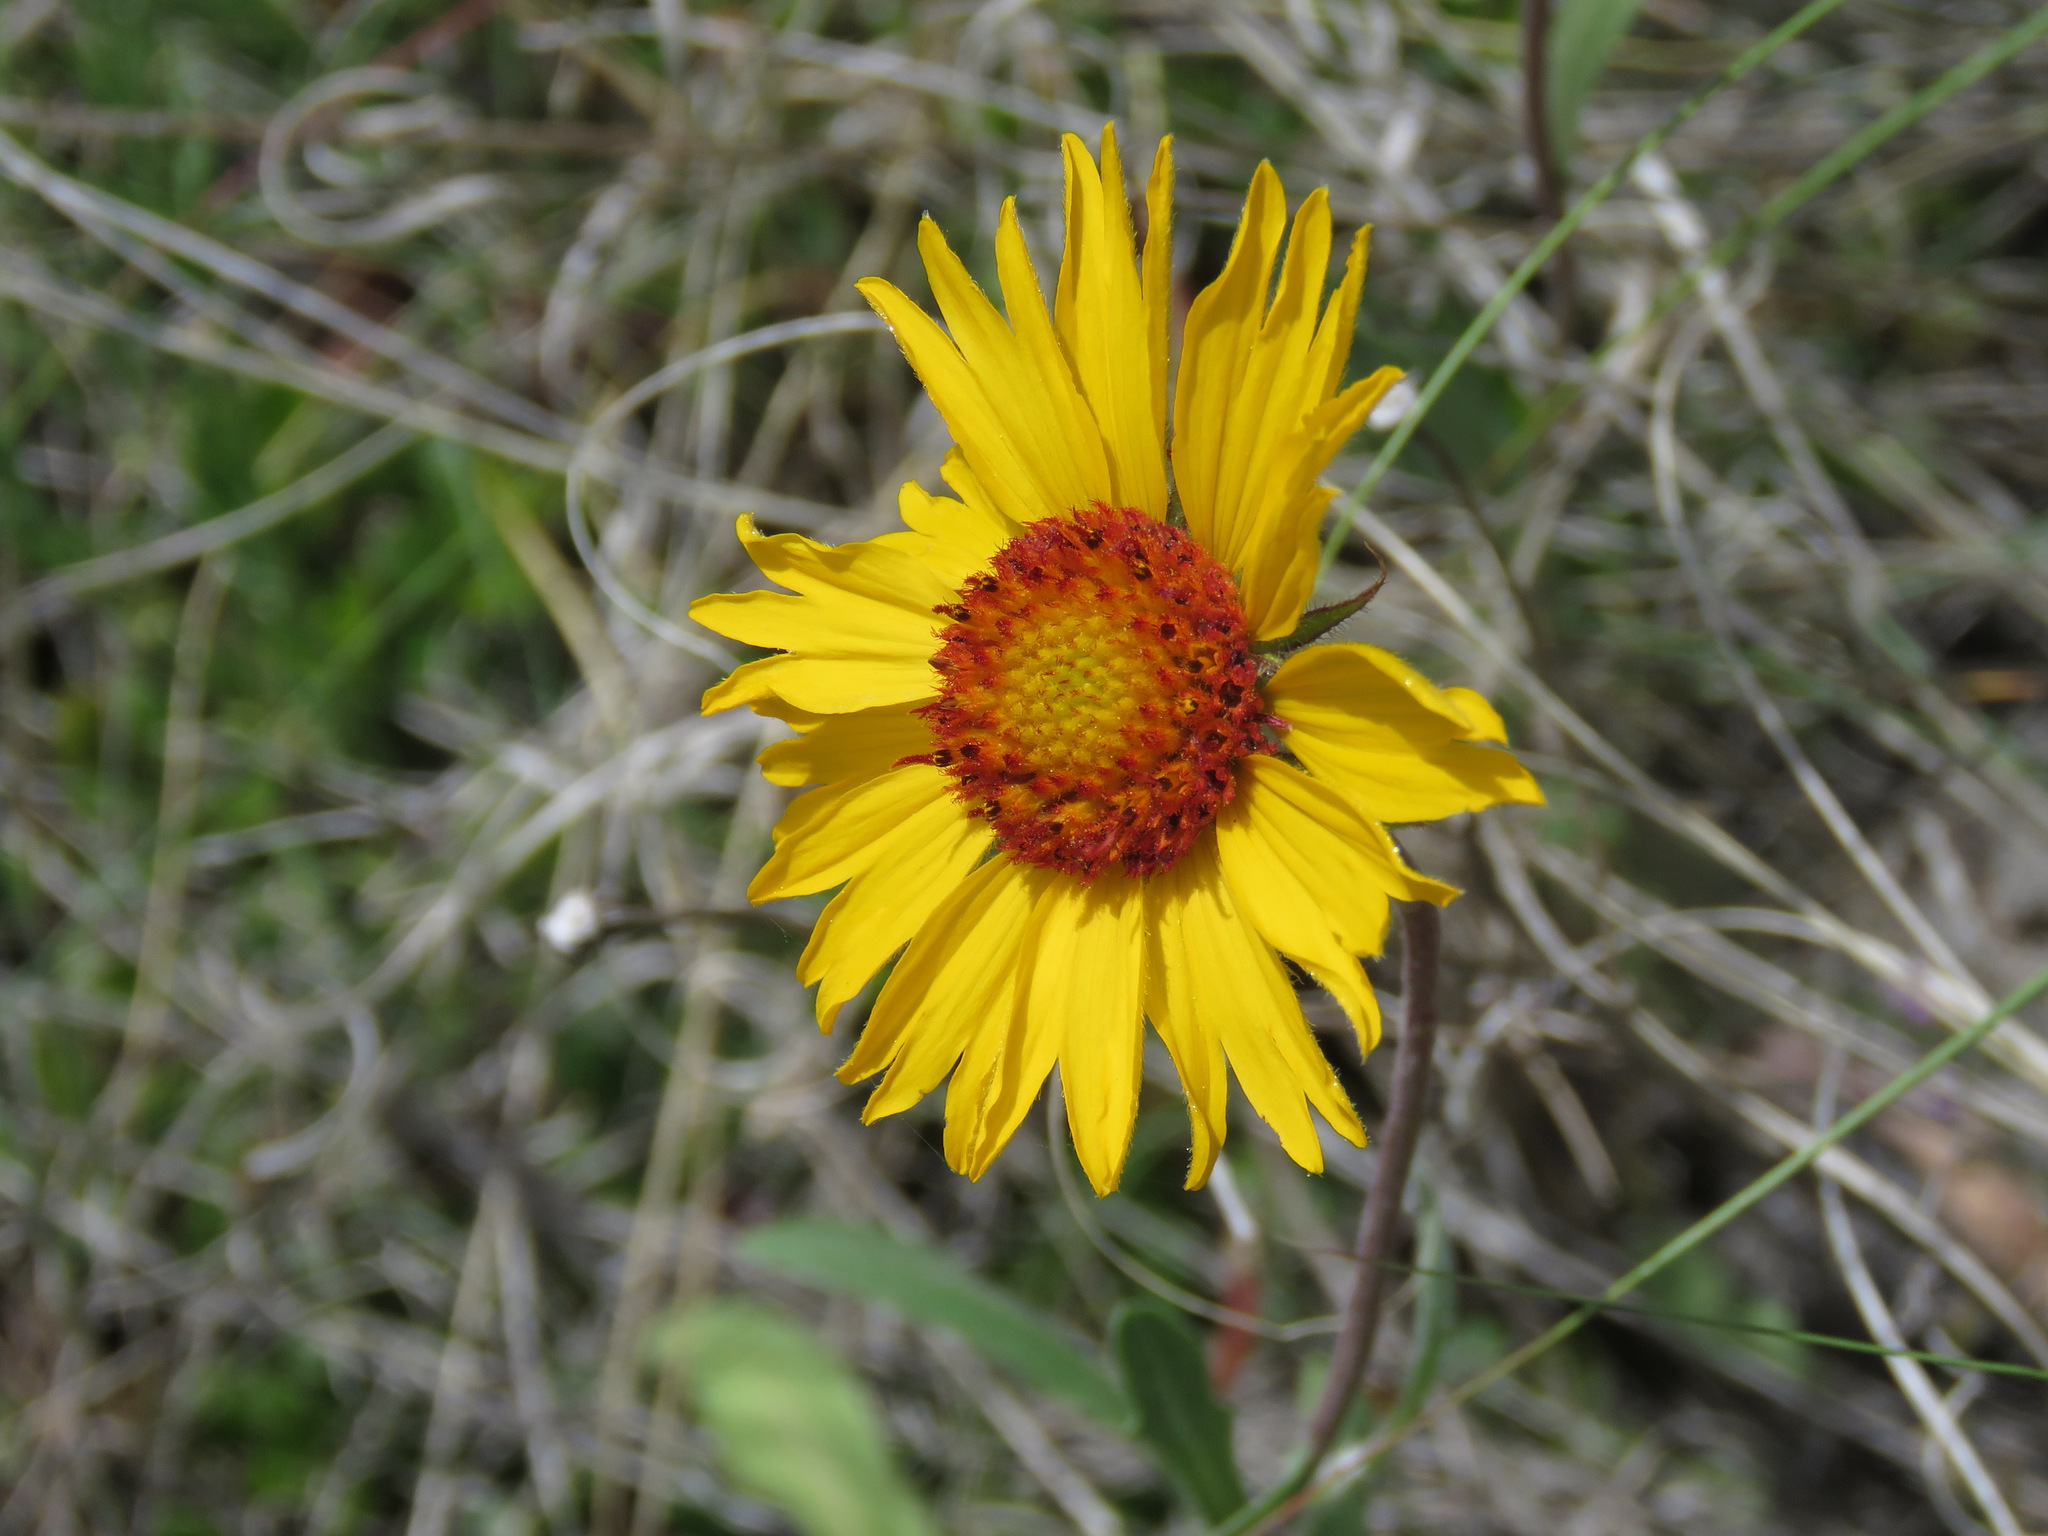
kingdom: Plantae
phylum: Tracheophyta
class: Magnoliopsida
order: Asterales
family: Asteraceae
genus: Gaillardia
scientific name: Gaillardia aristata
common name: Blanket-flower
